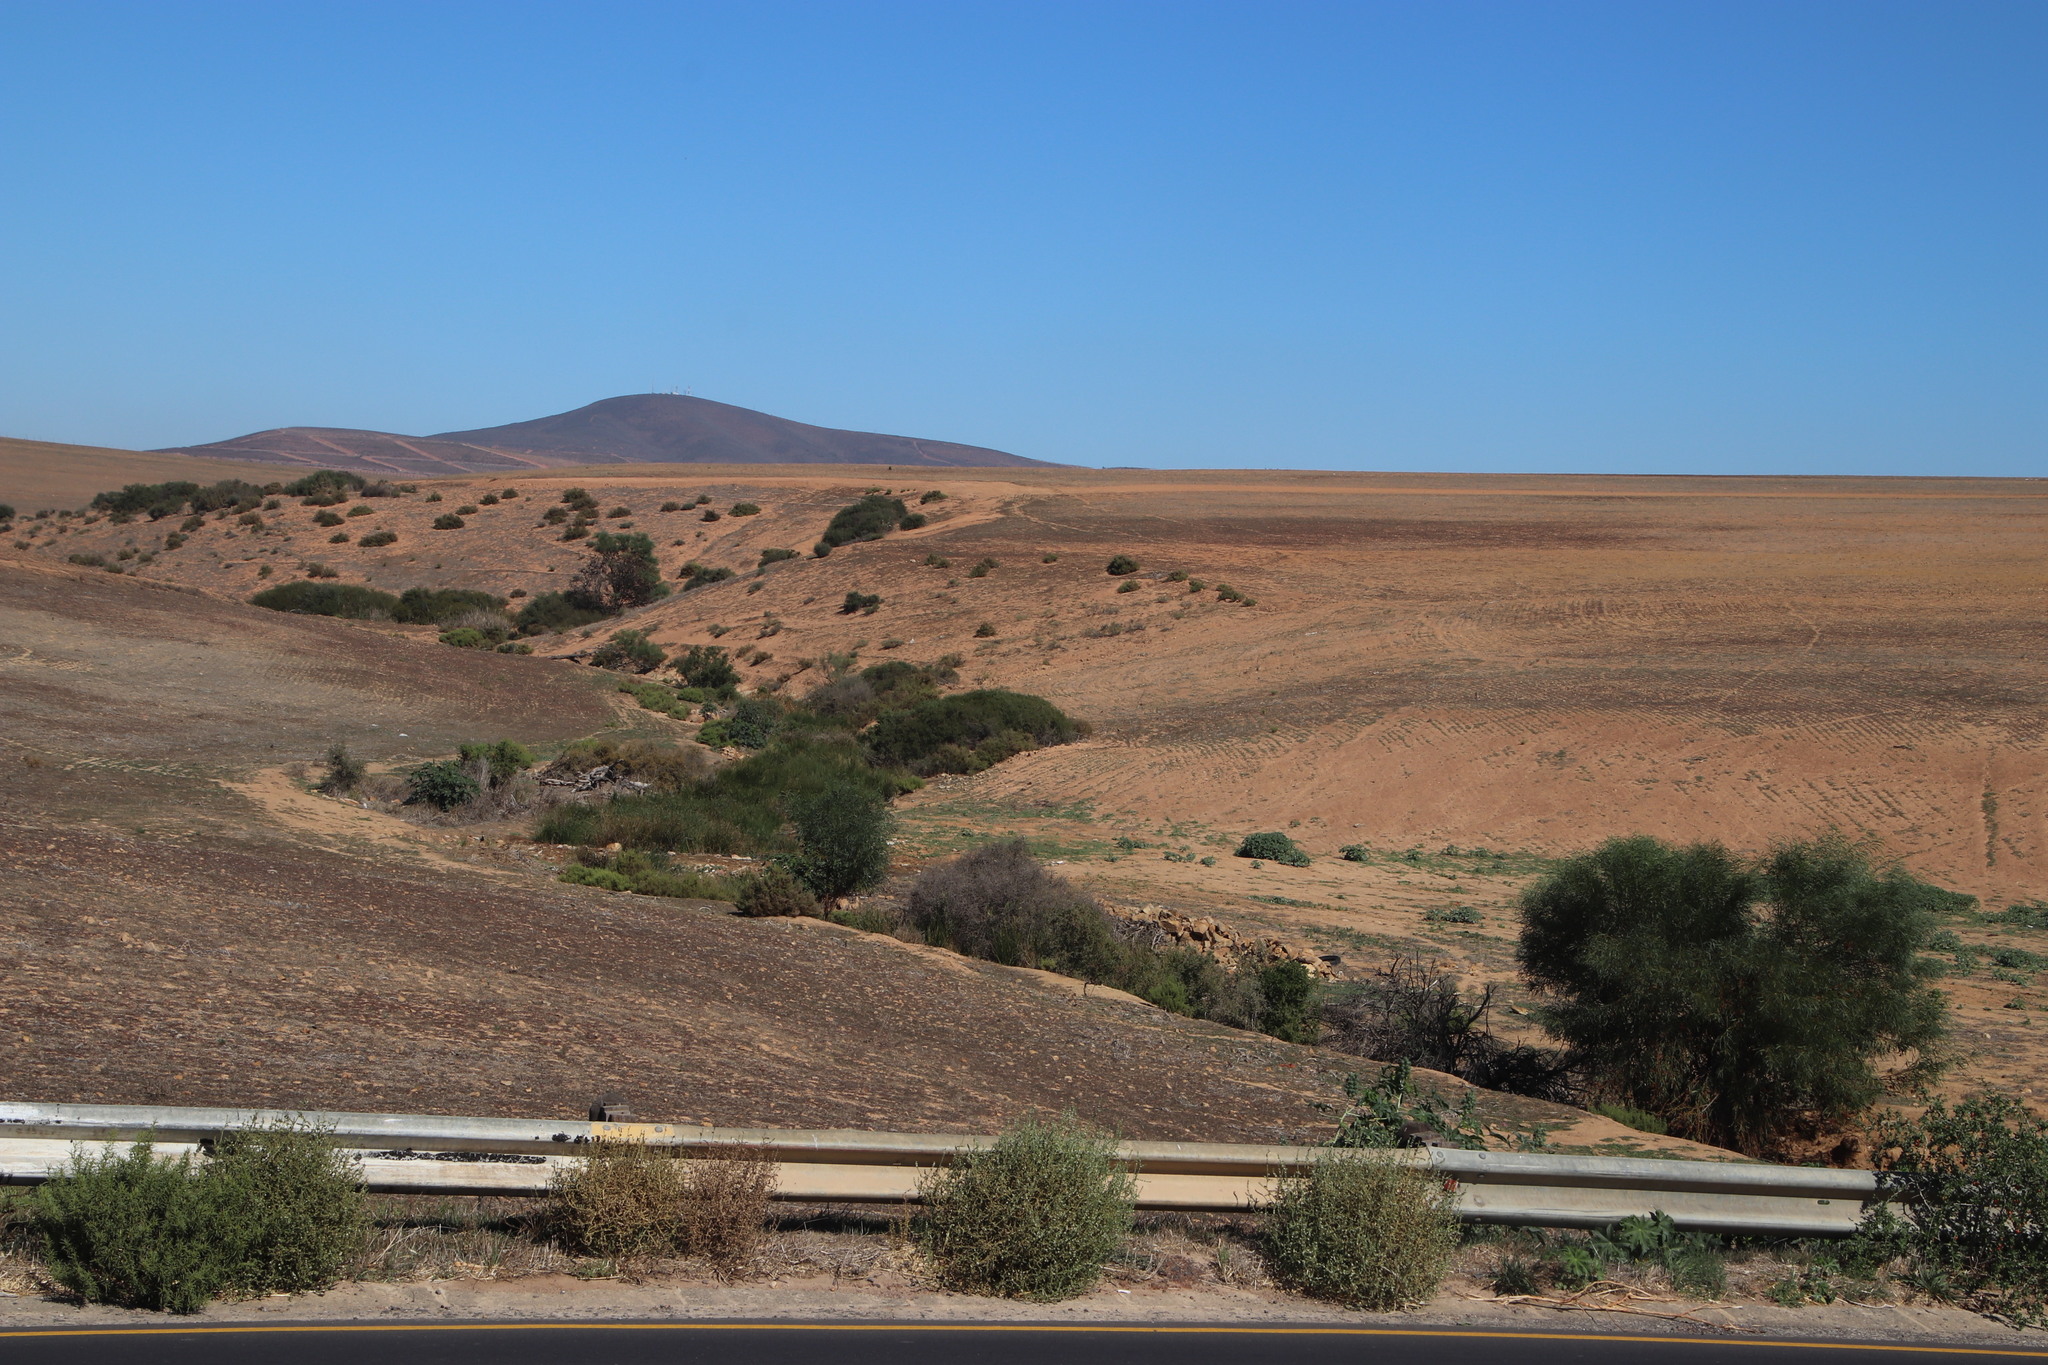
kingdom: Plantae
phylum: Tracheophyta
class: Magnoliopsida
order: Caryophyllales
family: Amaranthaceae
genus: Salsola
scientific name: Salsola kali
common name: Saltwort
